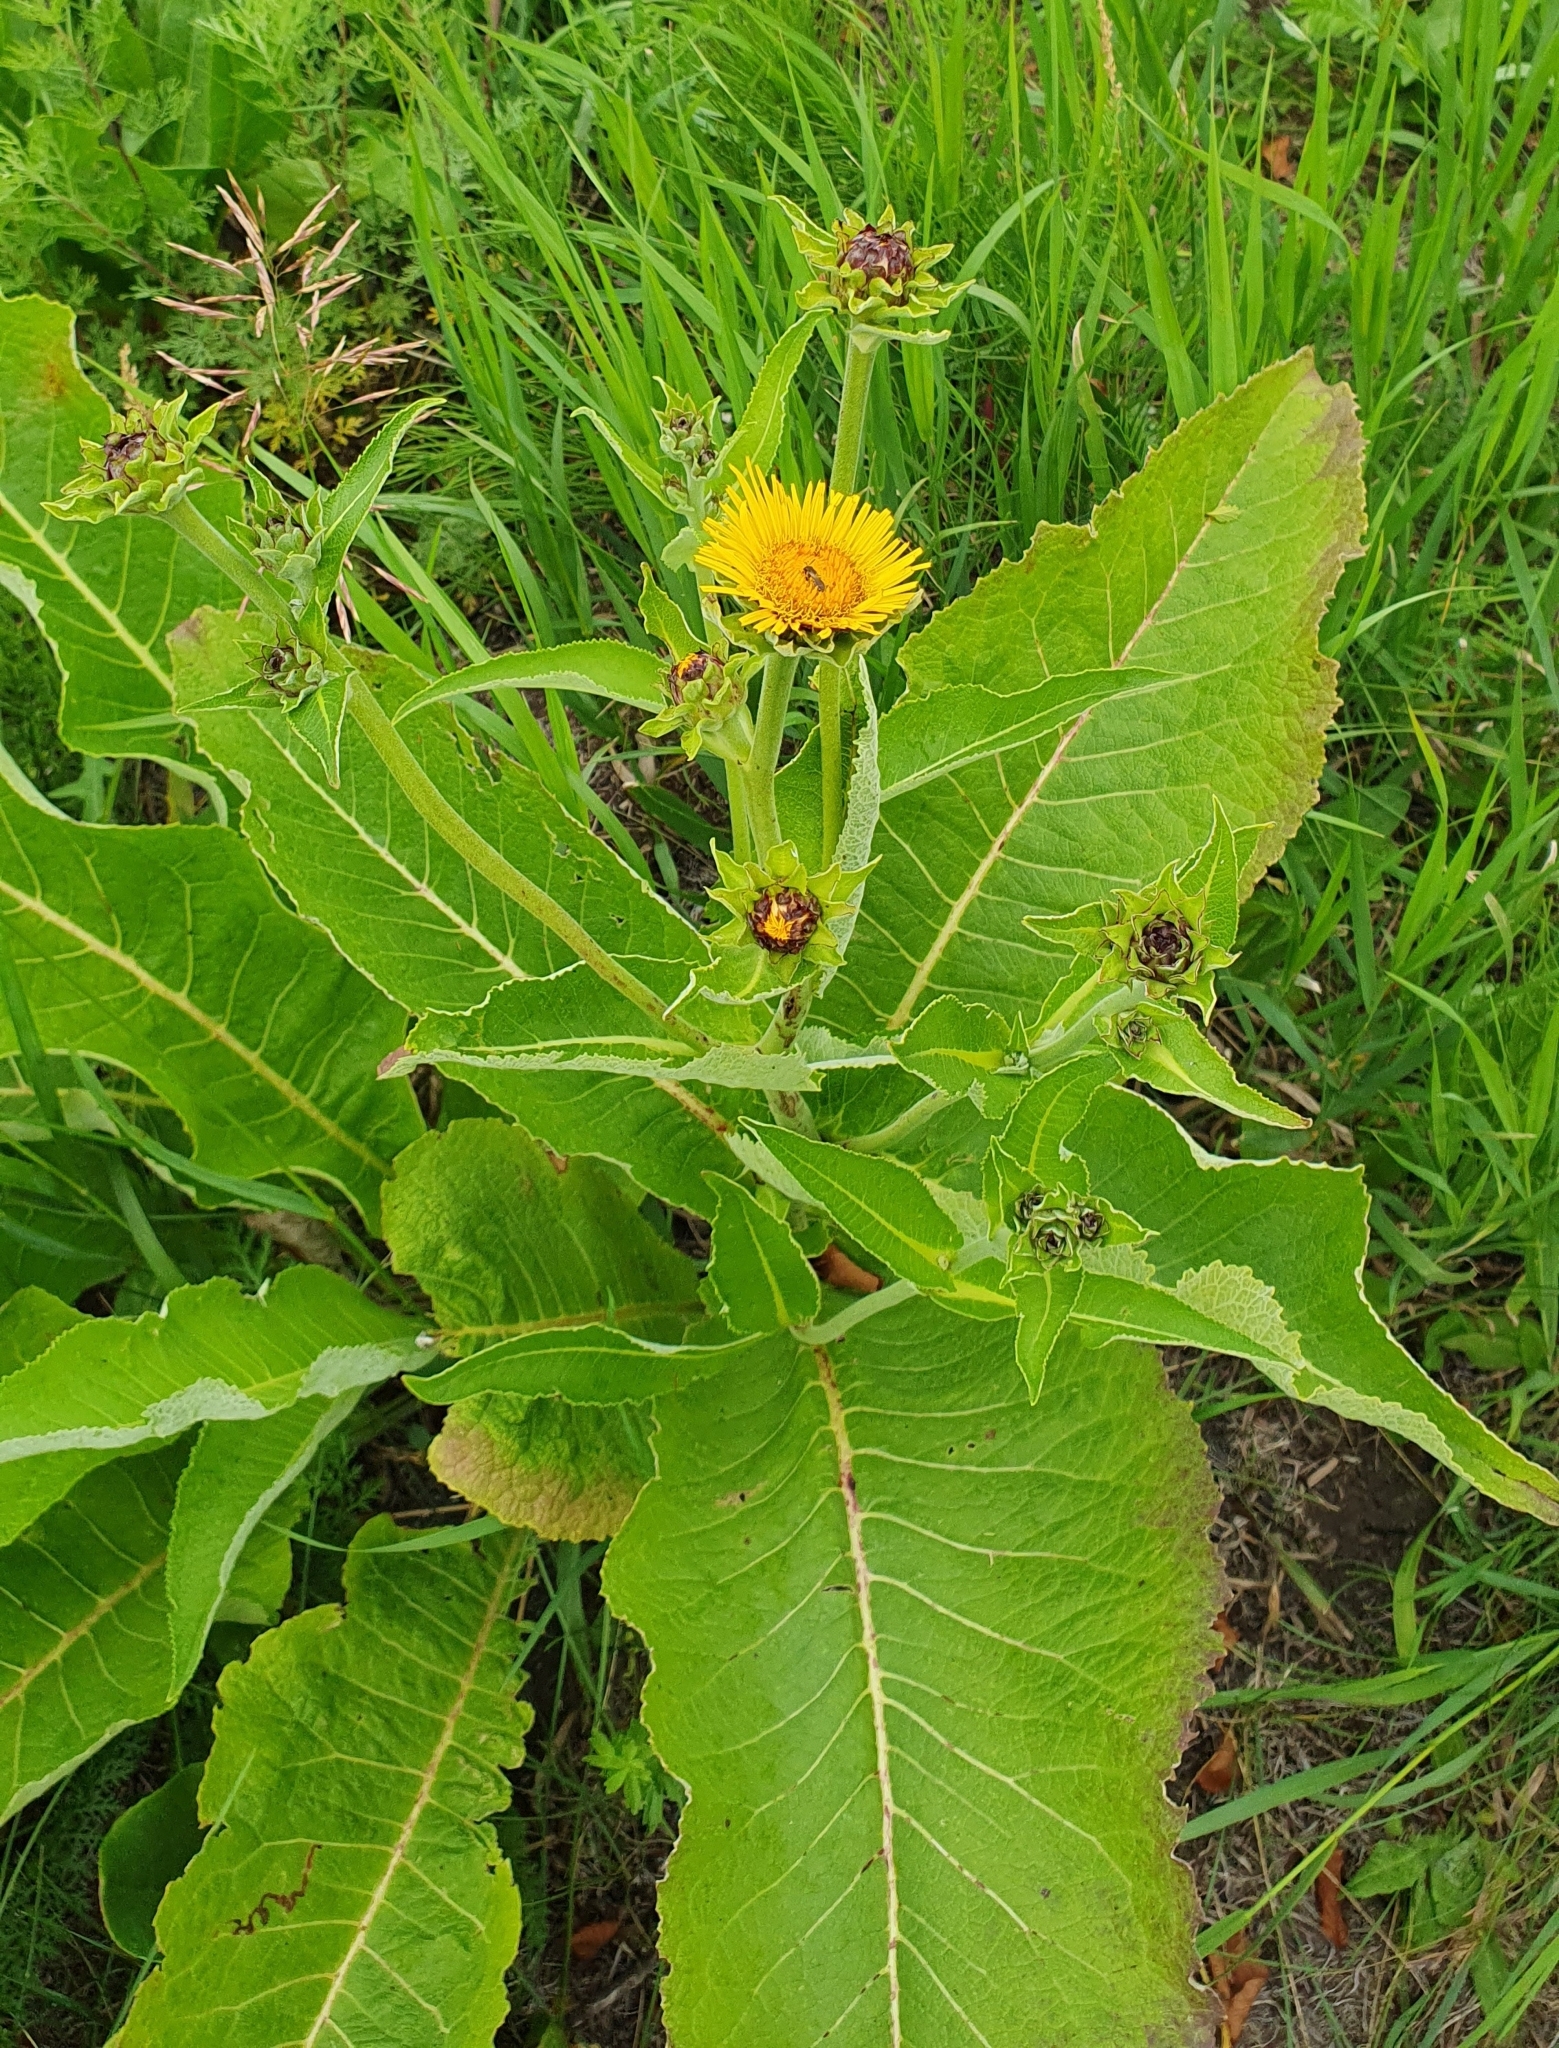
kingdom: Plantae
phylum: Tracheophyta
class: Magnoliopsida
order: Asterales
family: Asteraceae
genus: Inula
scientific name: Inula helenium
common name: Elecampane
